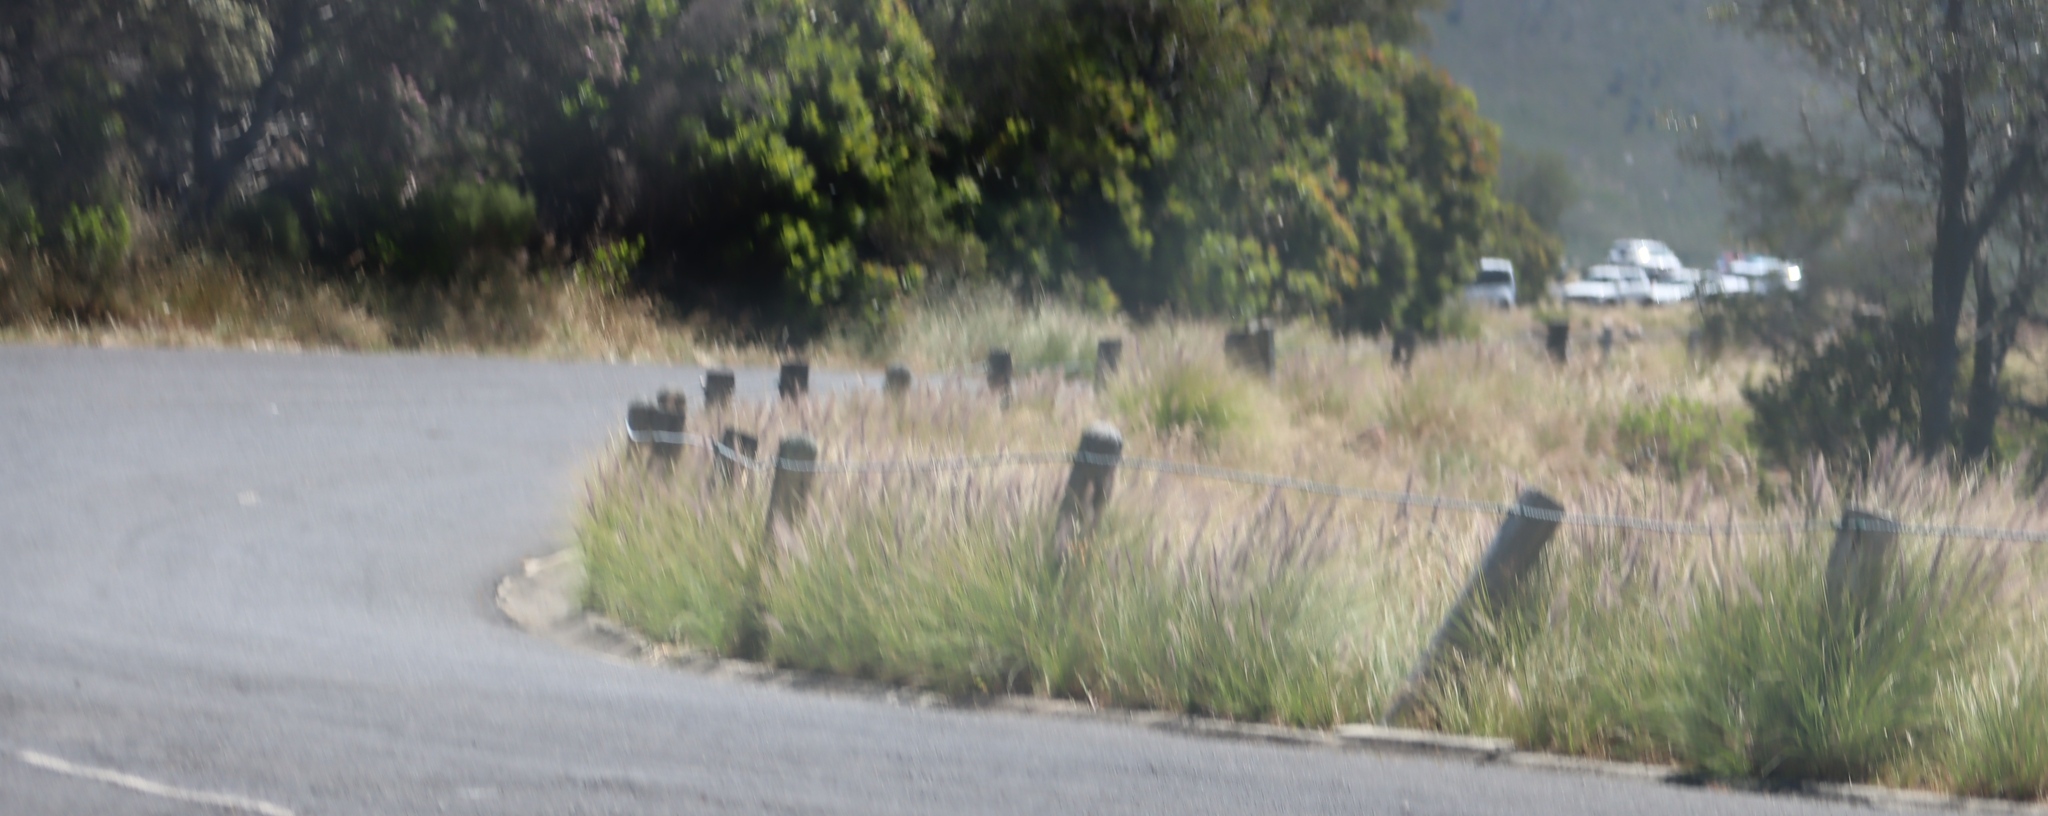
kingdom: Plantae
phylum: Tracheophyta
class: Liliopsida
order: Poales
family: Poaceae
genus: Cenchrus
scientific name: Cenchrus setaceus
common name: Crimson fountaingrass
